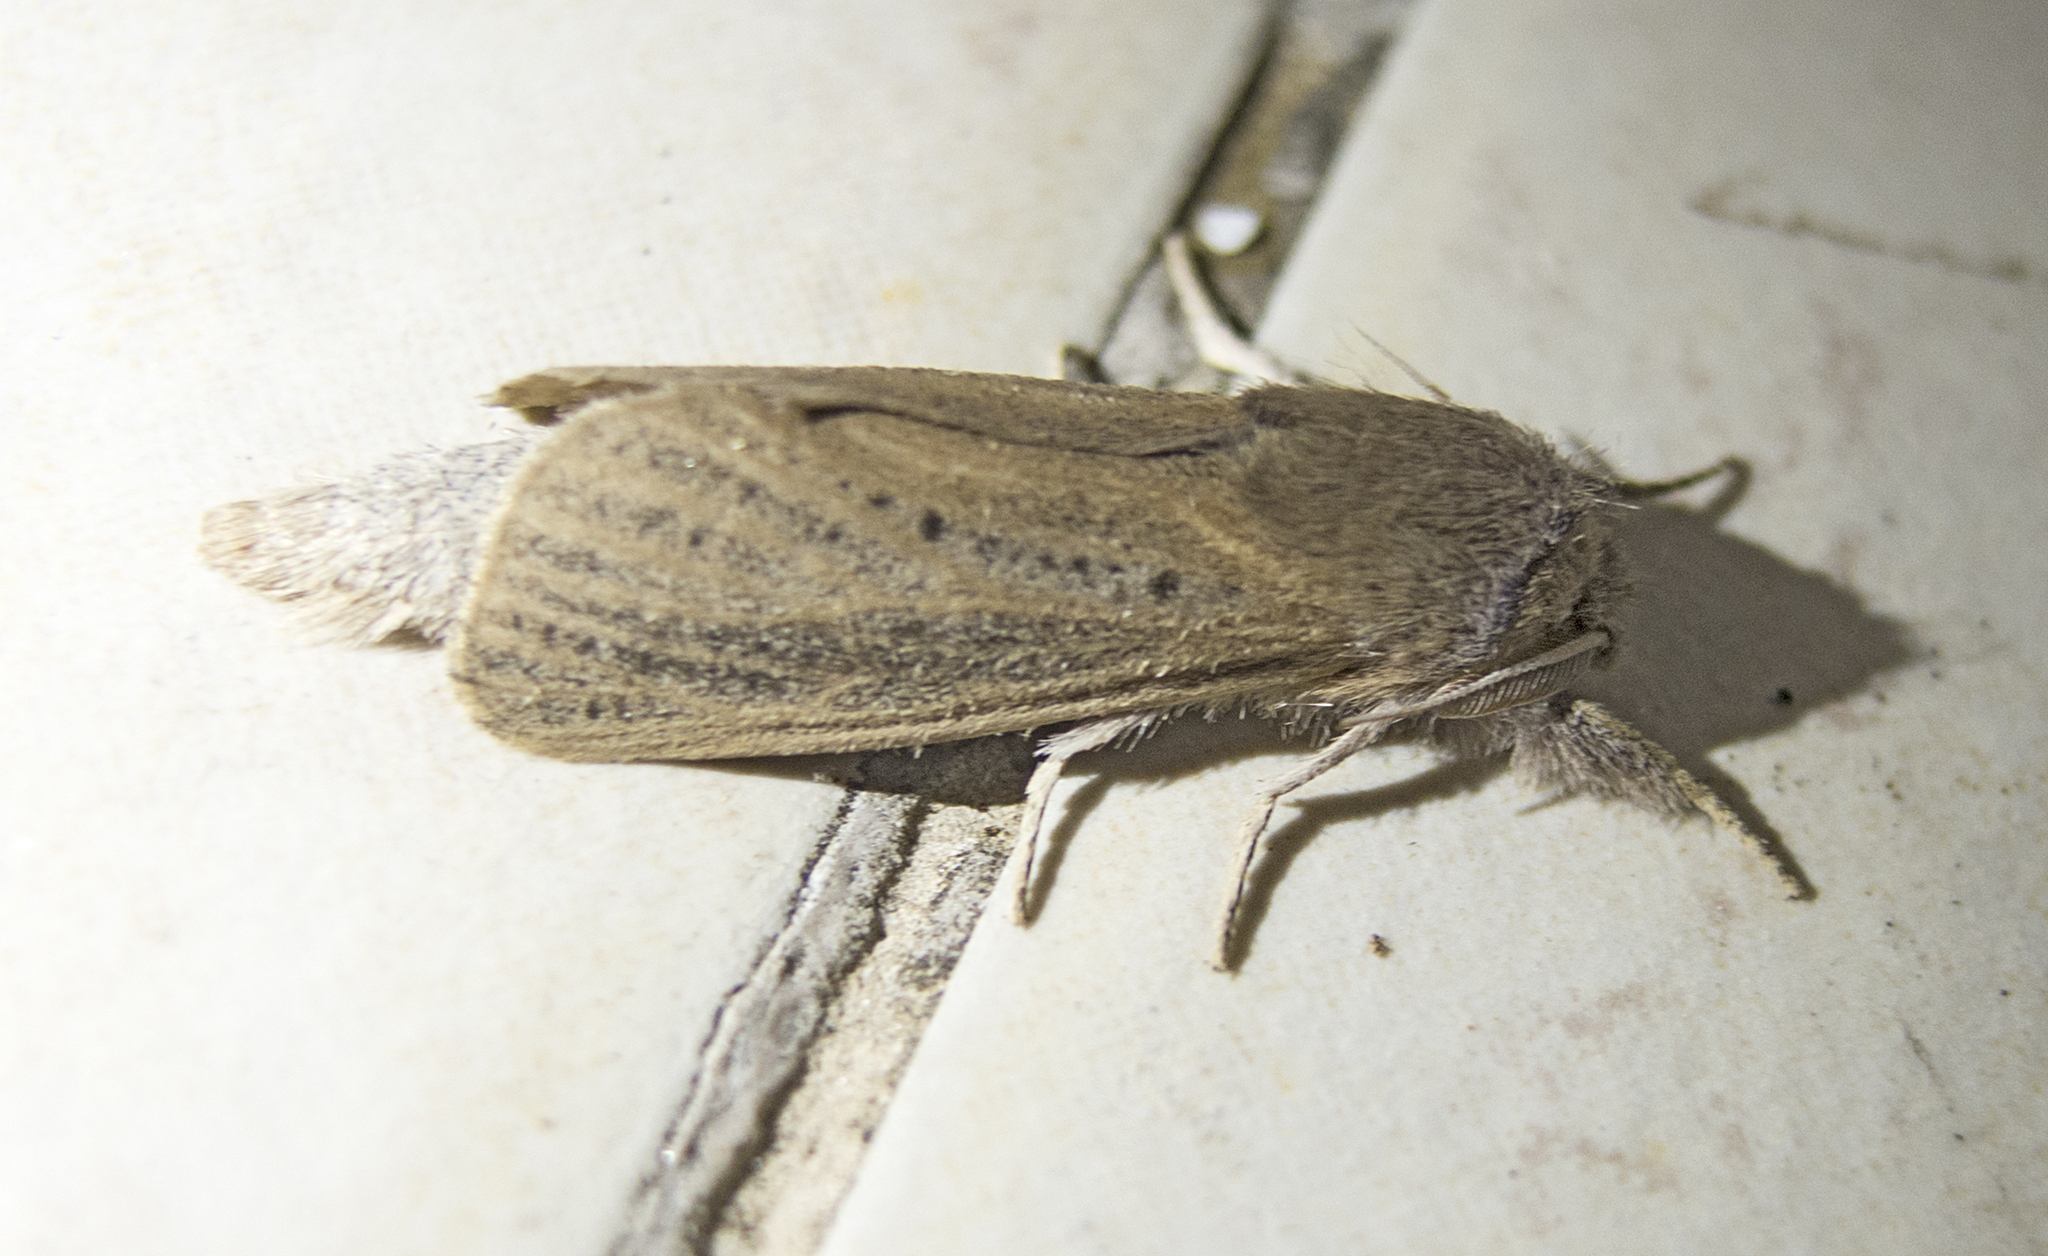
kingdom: Animalia
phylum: Arthropoda
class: Insecta
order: Lepidoptera
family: Cossidae
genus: Phragmataecia
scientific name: Phragmataecia castaneae
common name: Reed leopard
